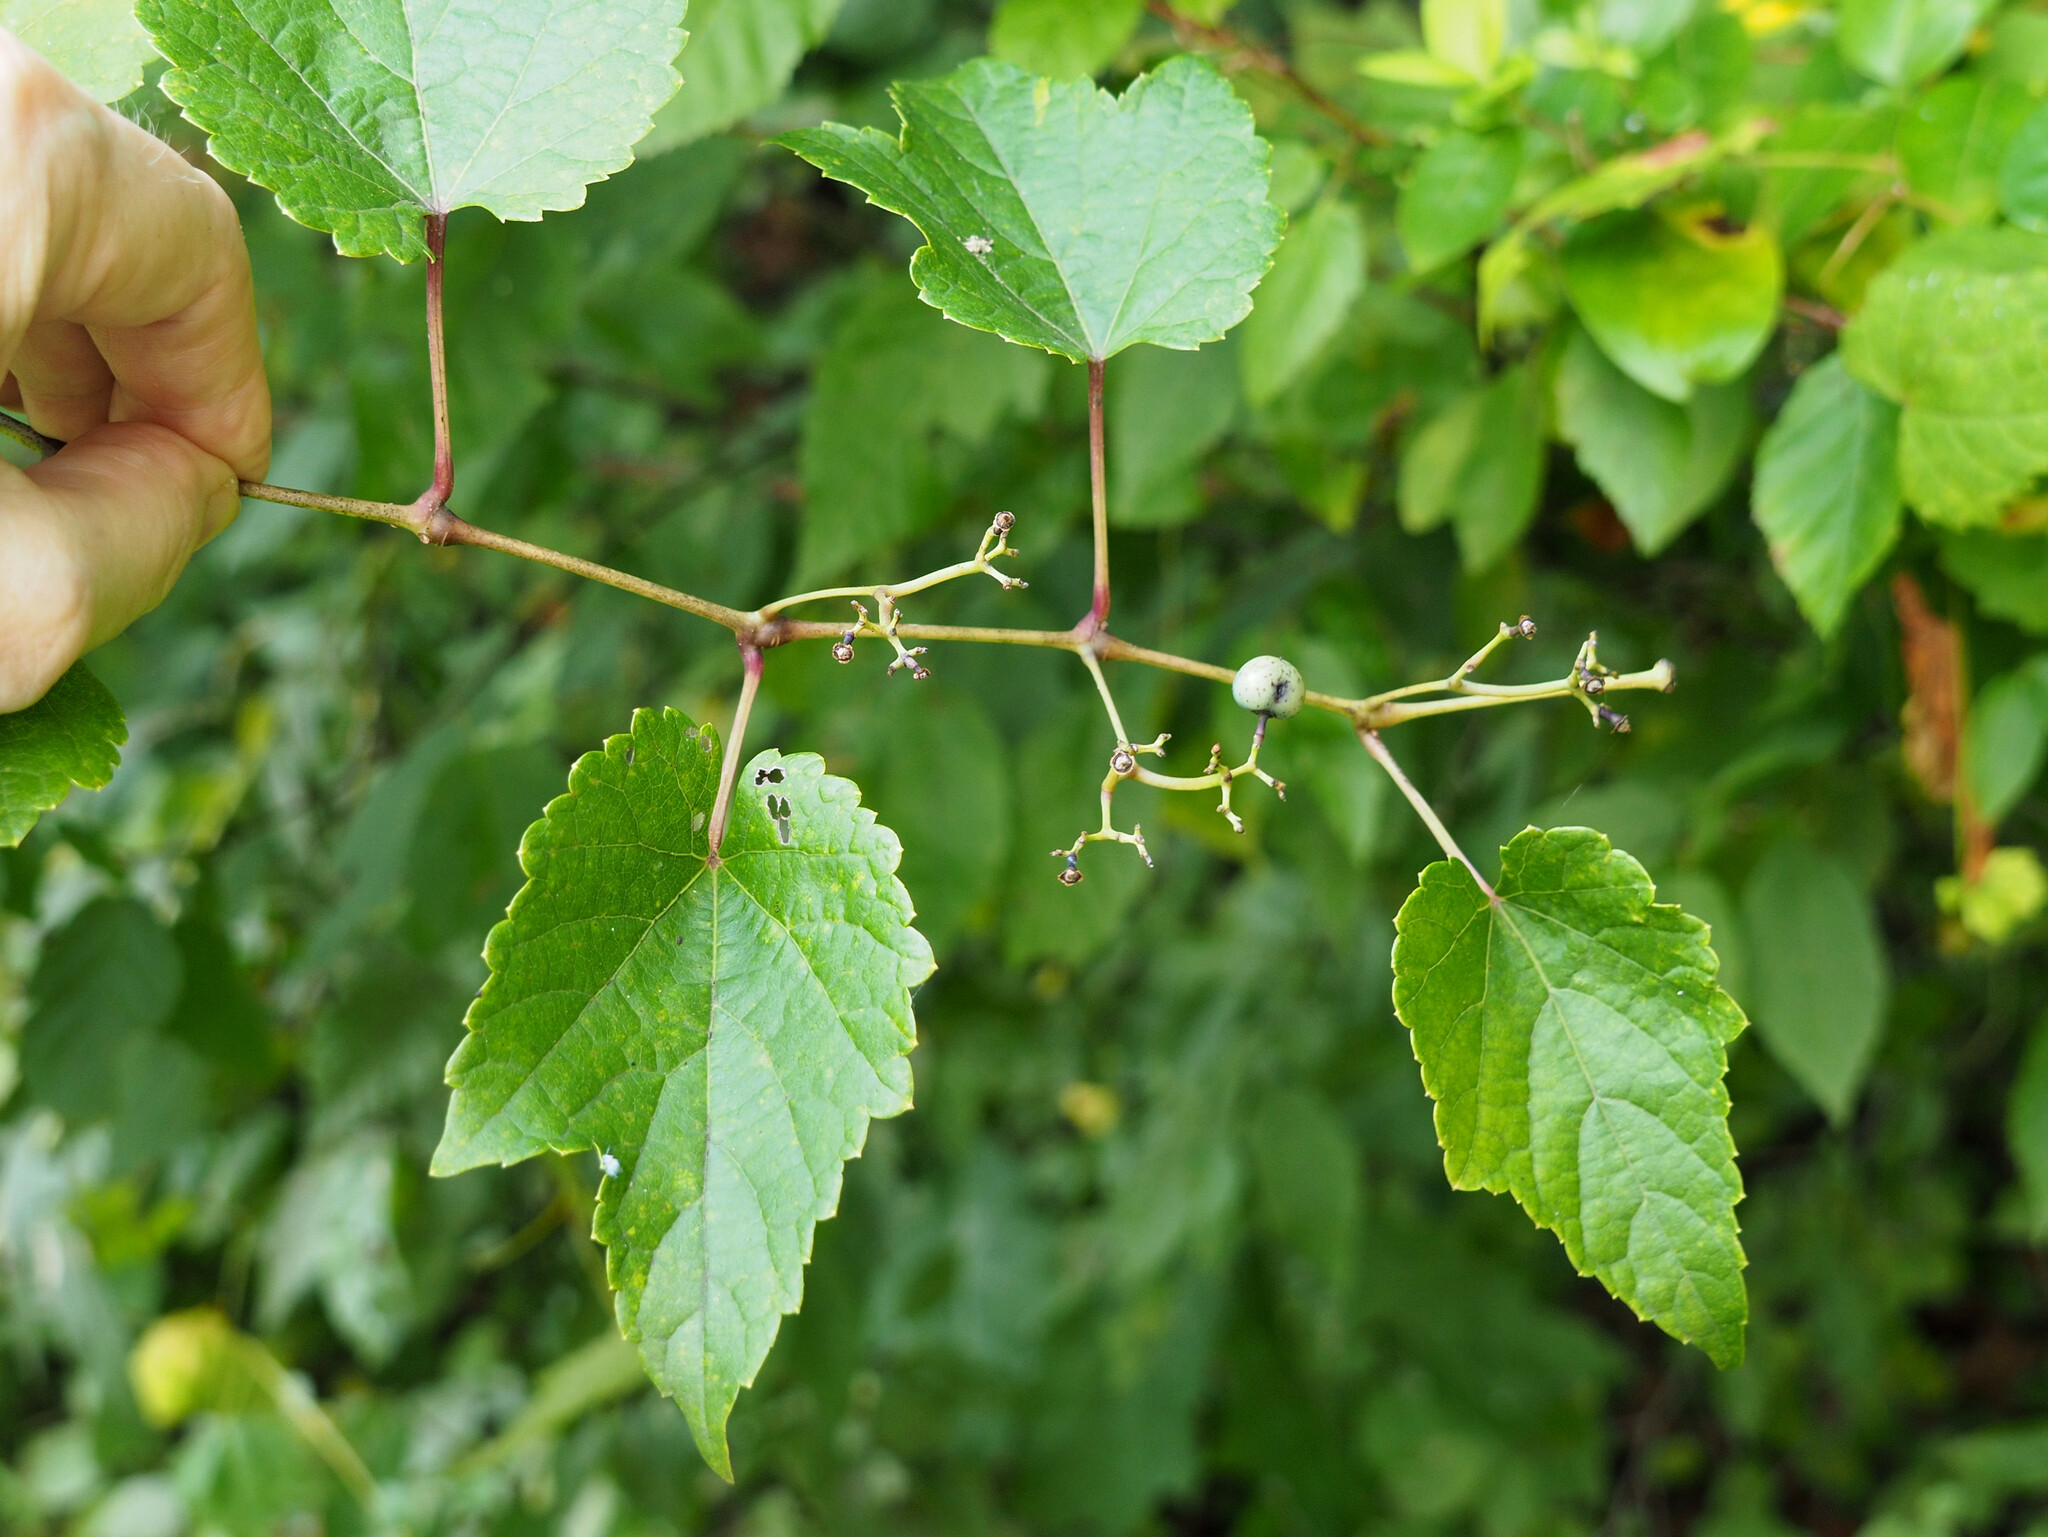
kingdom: Plantae
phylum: Tracheophyta
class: Magnoliopsida
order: Vitales
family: Vitaceae
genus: Ampelopsis
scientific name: Ampelopsis glandulosa
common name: Amur peppervine
